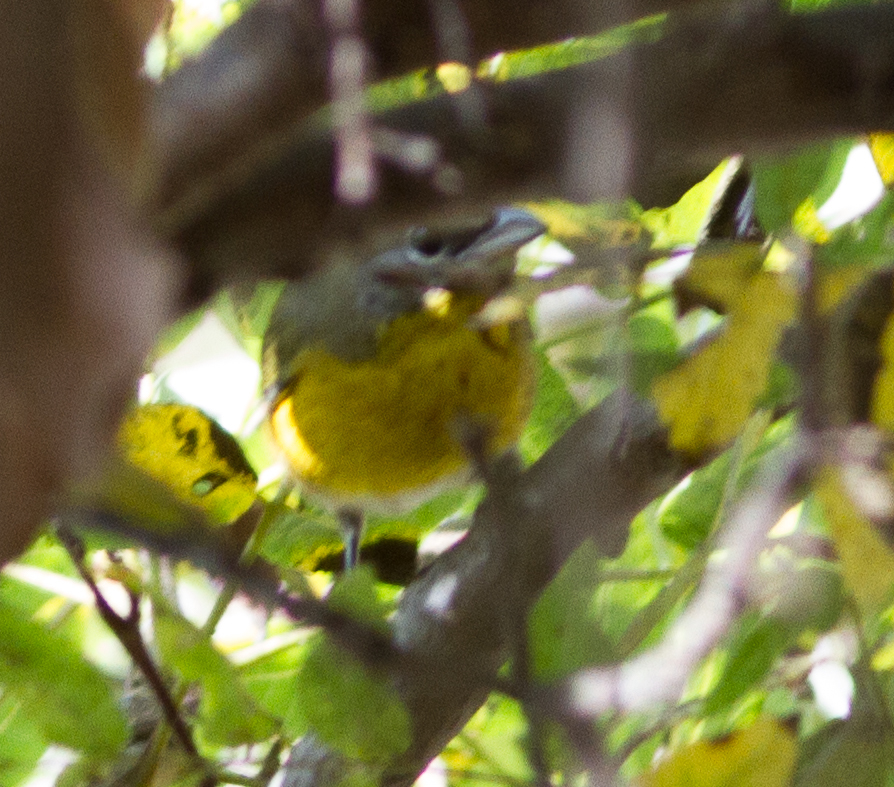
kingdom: Animalia
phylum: Chordata
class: Aves
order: Passeriformes
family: Parulidae
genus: Icteria
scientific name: Icteria virens
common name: Yellow-breasted chat
